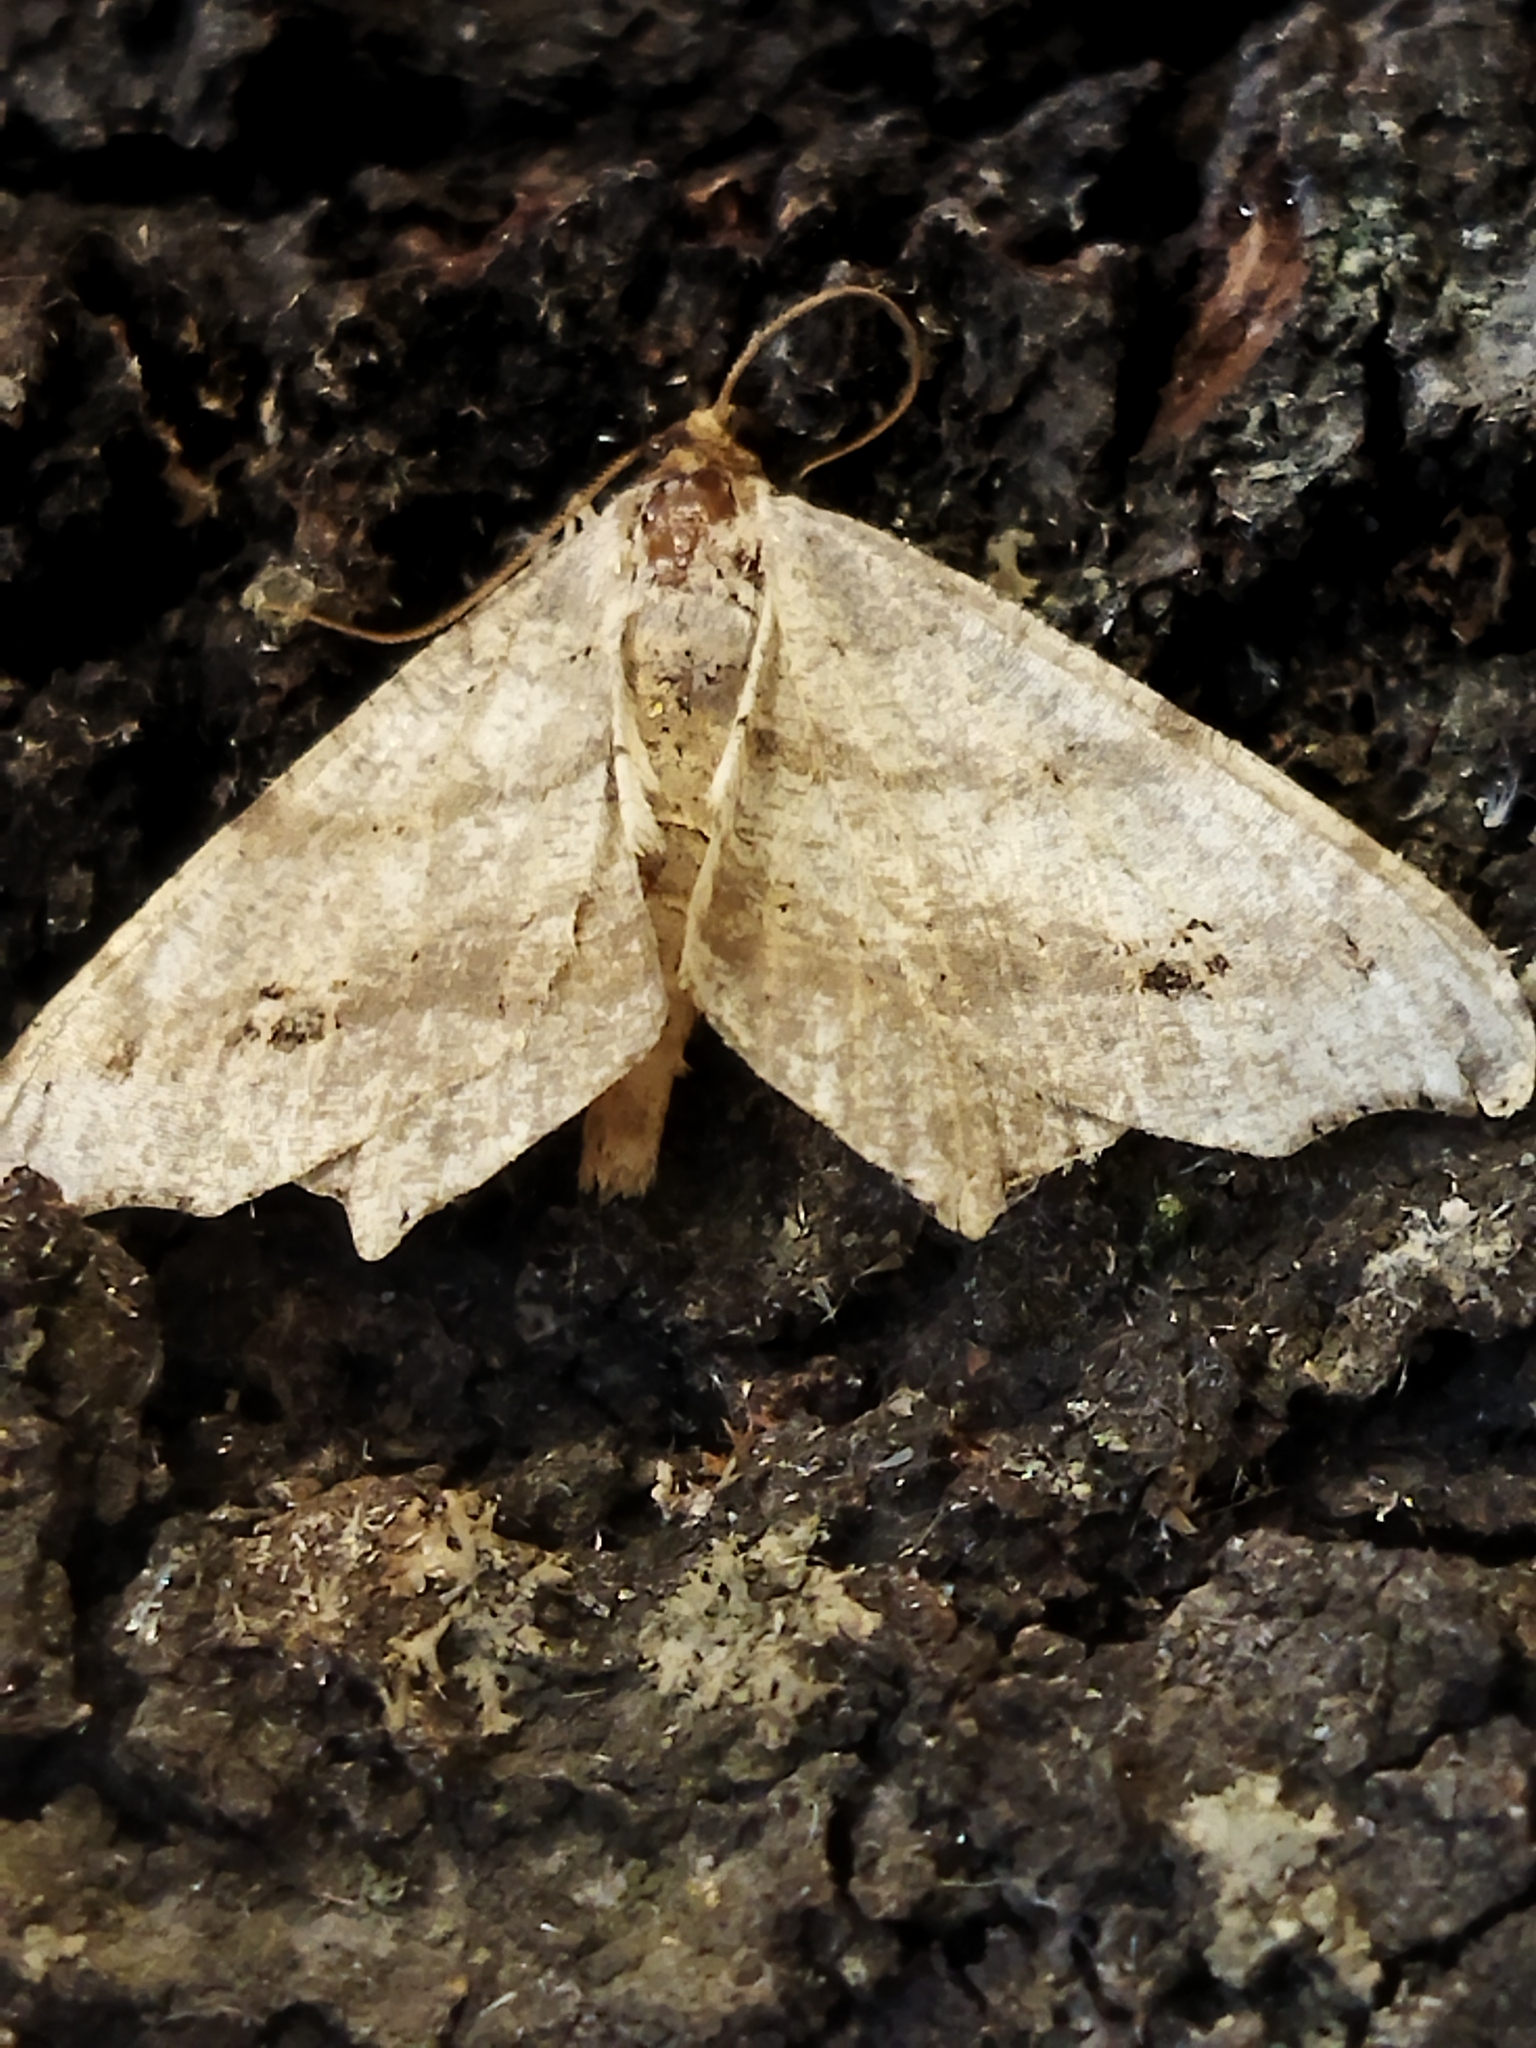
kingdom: Animalia
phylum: Arthropoda
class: Insecta
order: Lepidoptera
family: Geometridae
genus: Macaria
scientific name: Macaria alternata
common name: Sharp-angled peacock
